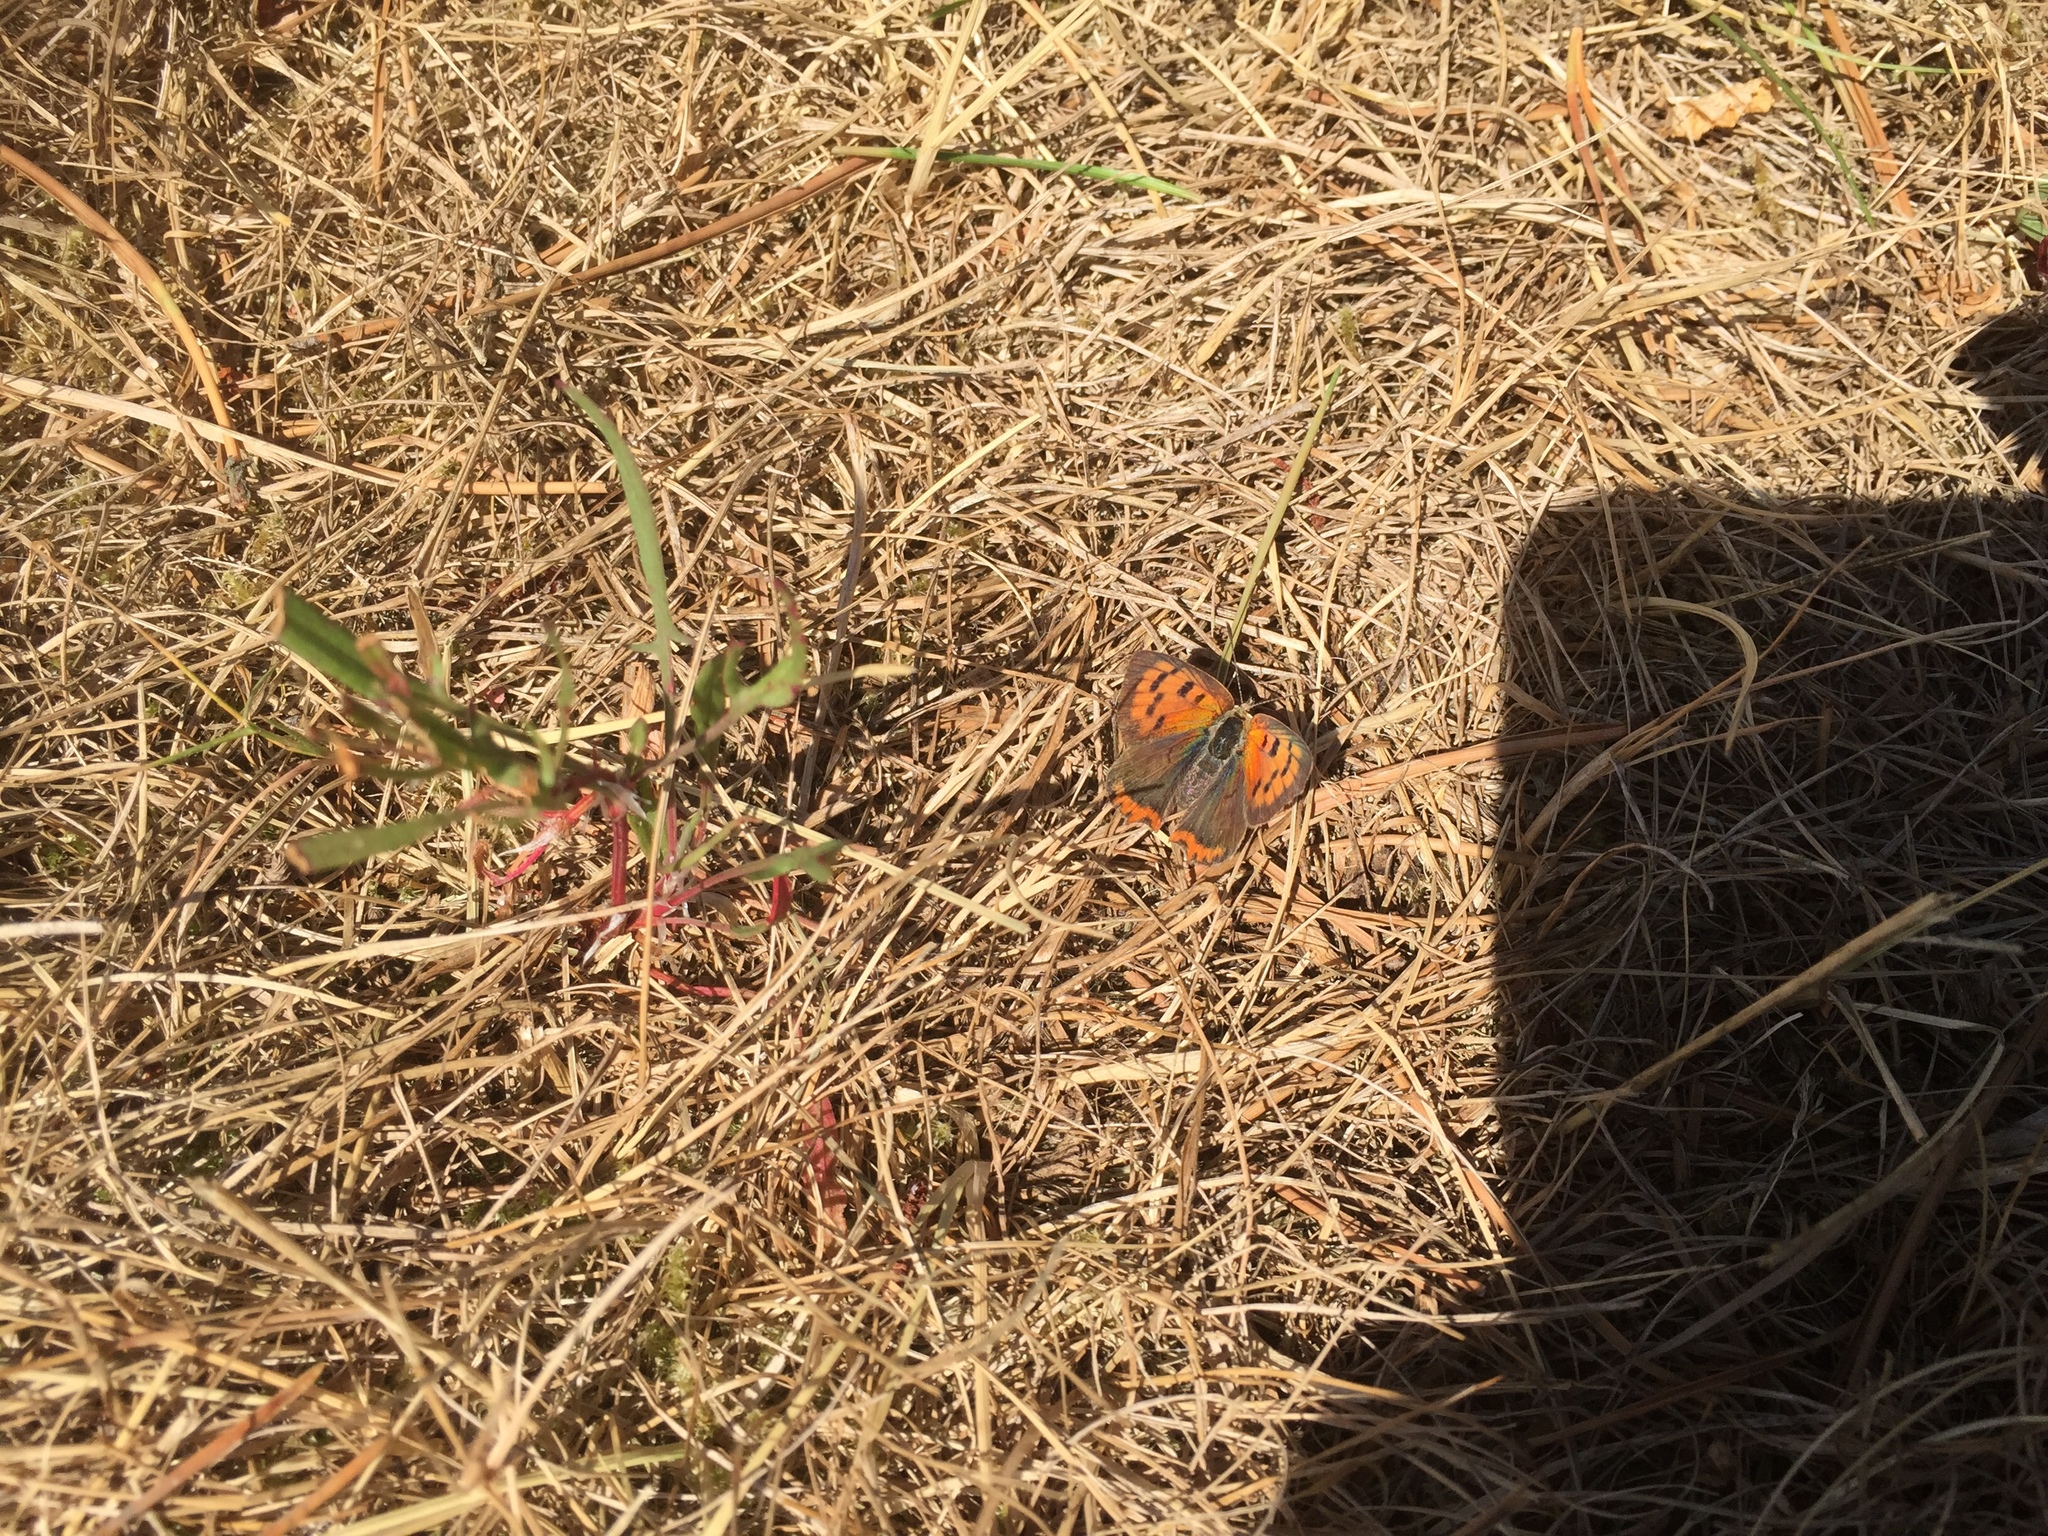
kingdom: Animalia
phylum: Arthropoda
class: Insecta
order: Lepidoptera
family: Lycaenidae
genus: Lycaena
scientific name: Lycaena phlaeas
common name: Small copper
